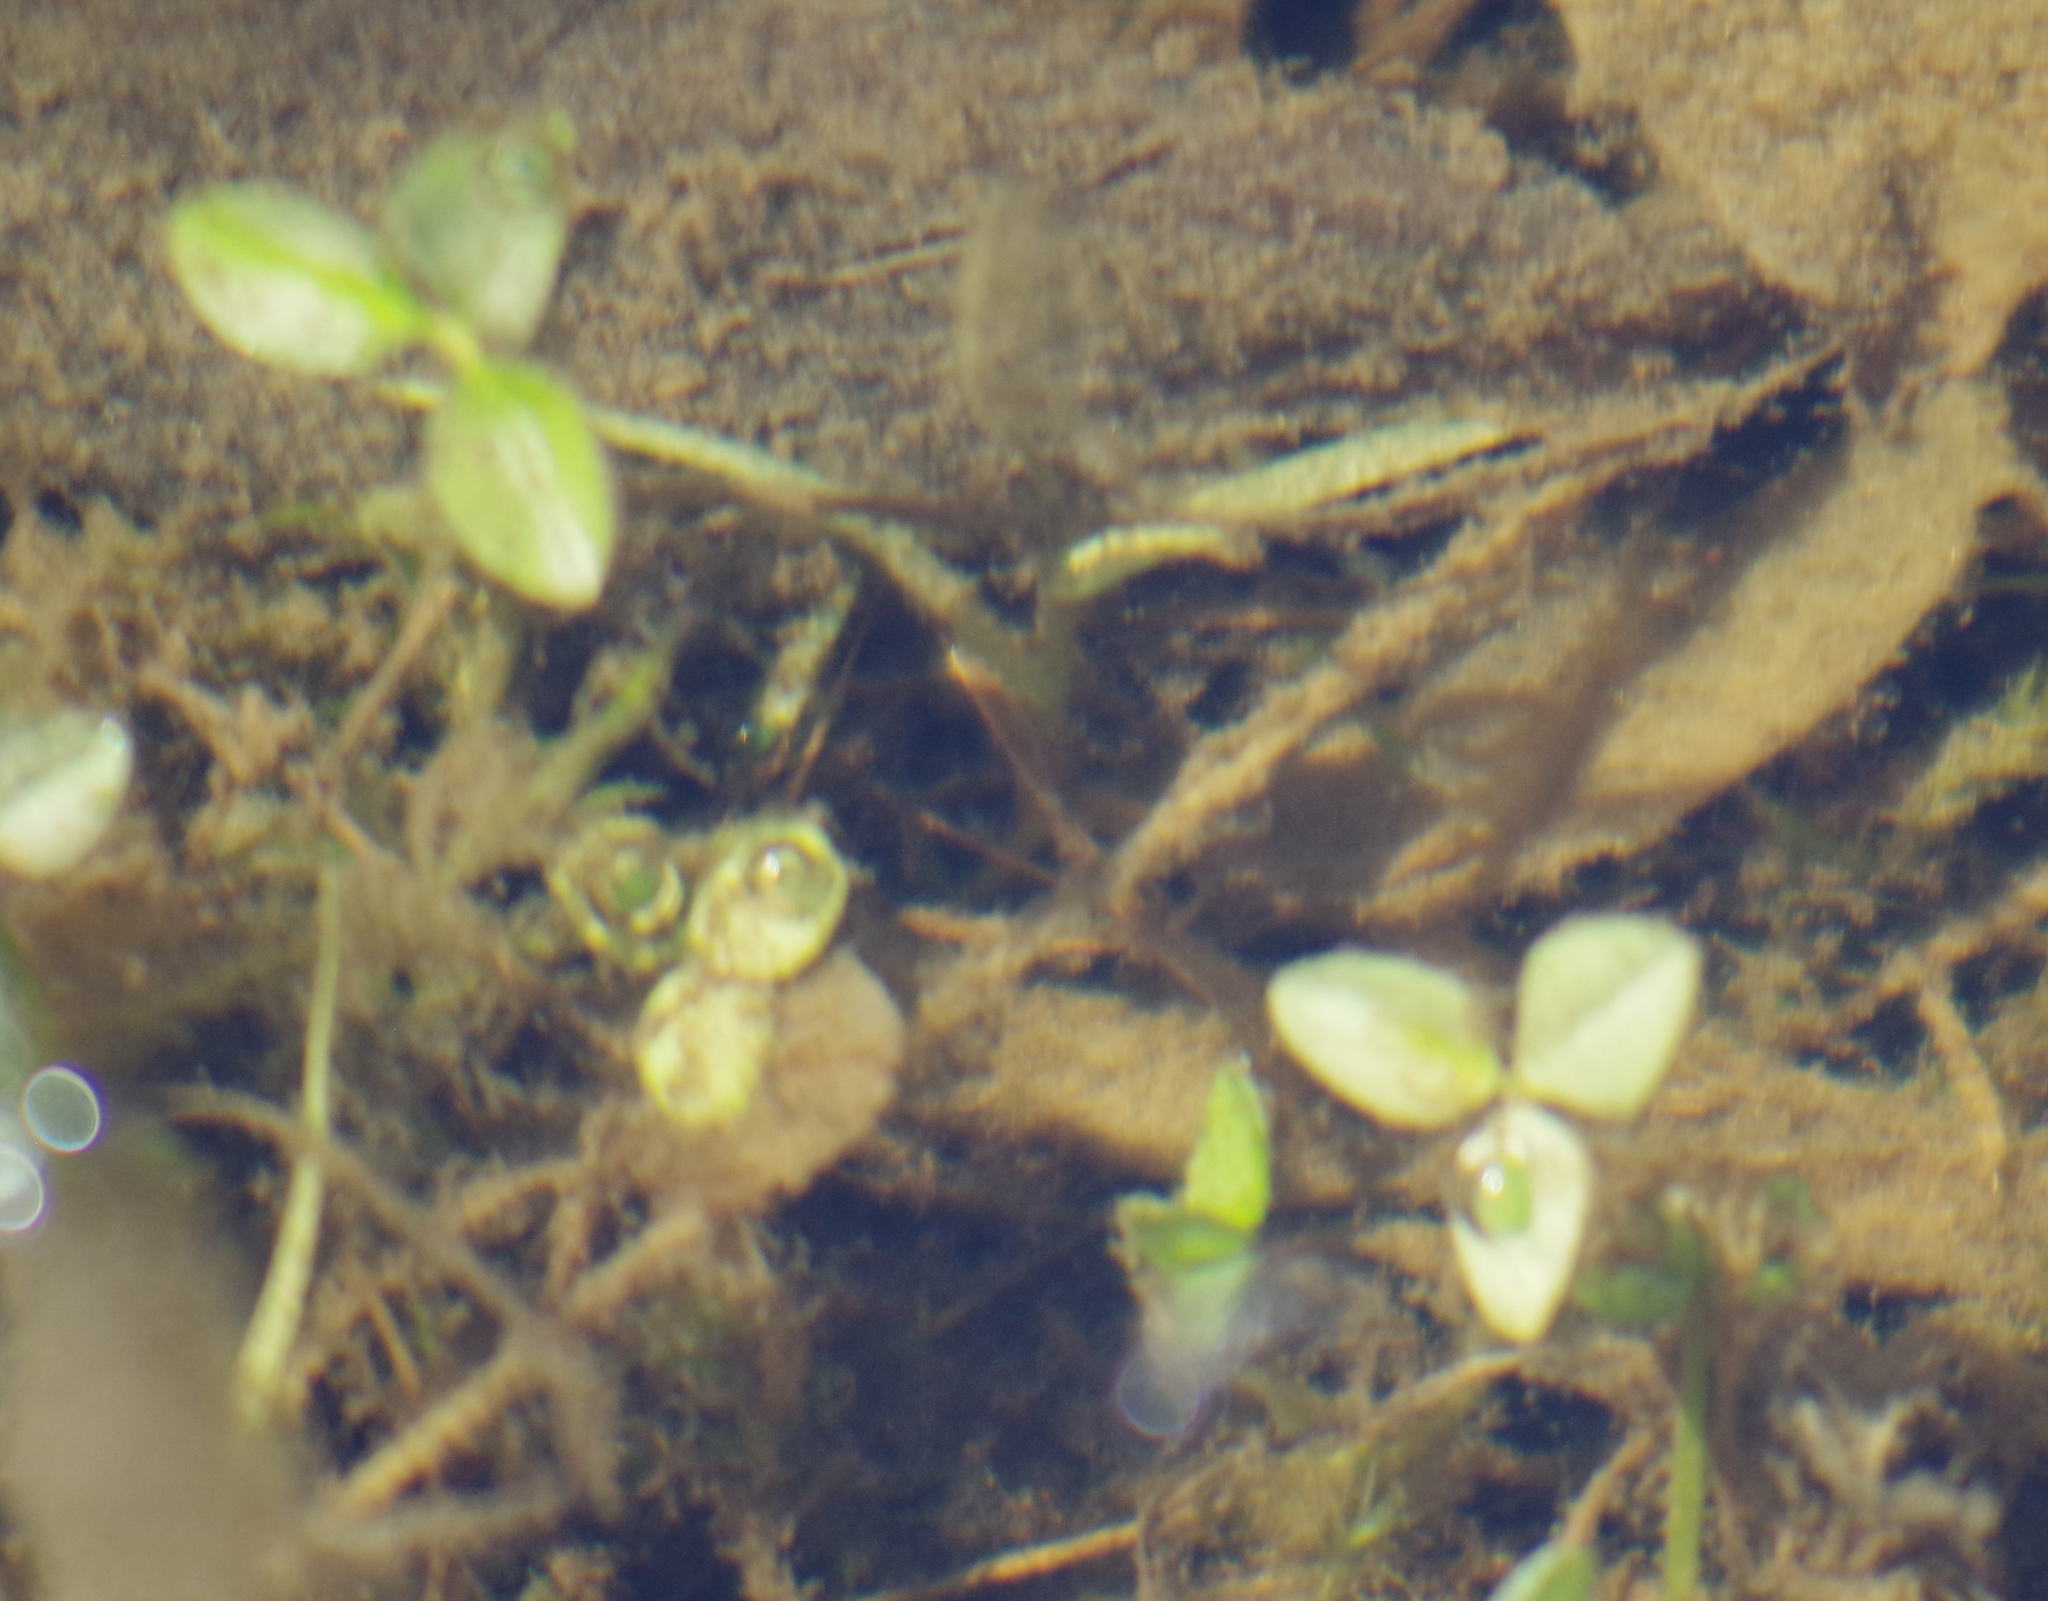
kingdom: Plantae
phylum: Tracheophyta
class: Magnoliopsida
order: Asterales
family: Menyanthaceae
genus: Menyanthes
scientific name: Menyanthes trifoliata
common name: Bogbean
